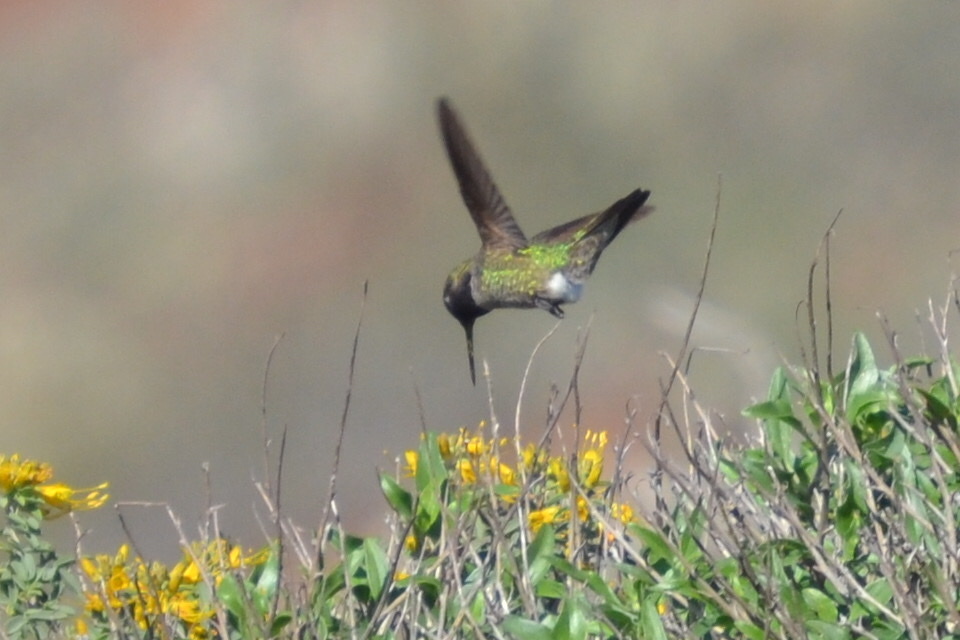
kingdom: Animalia
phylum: Chordata
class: Aves
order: Apodiformes
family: Trochilidae
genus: Calypte
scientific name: Calypte anna
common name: Anna's hummingbird
